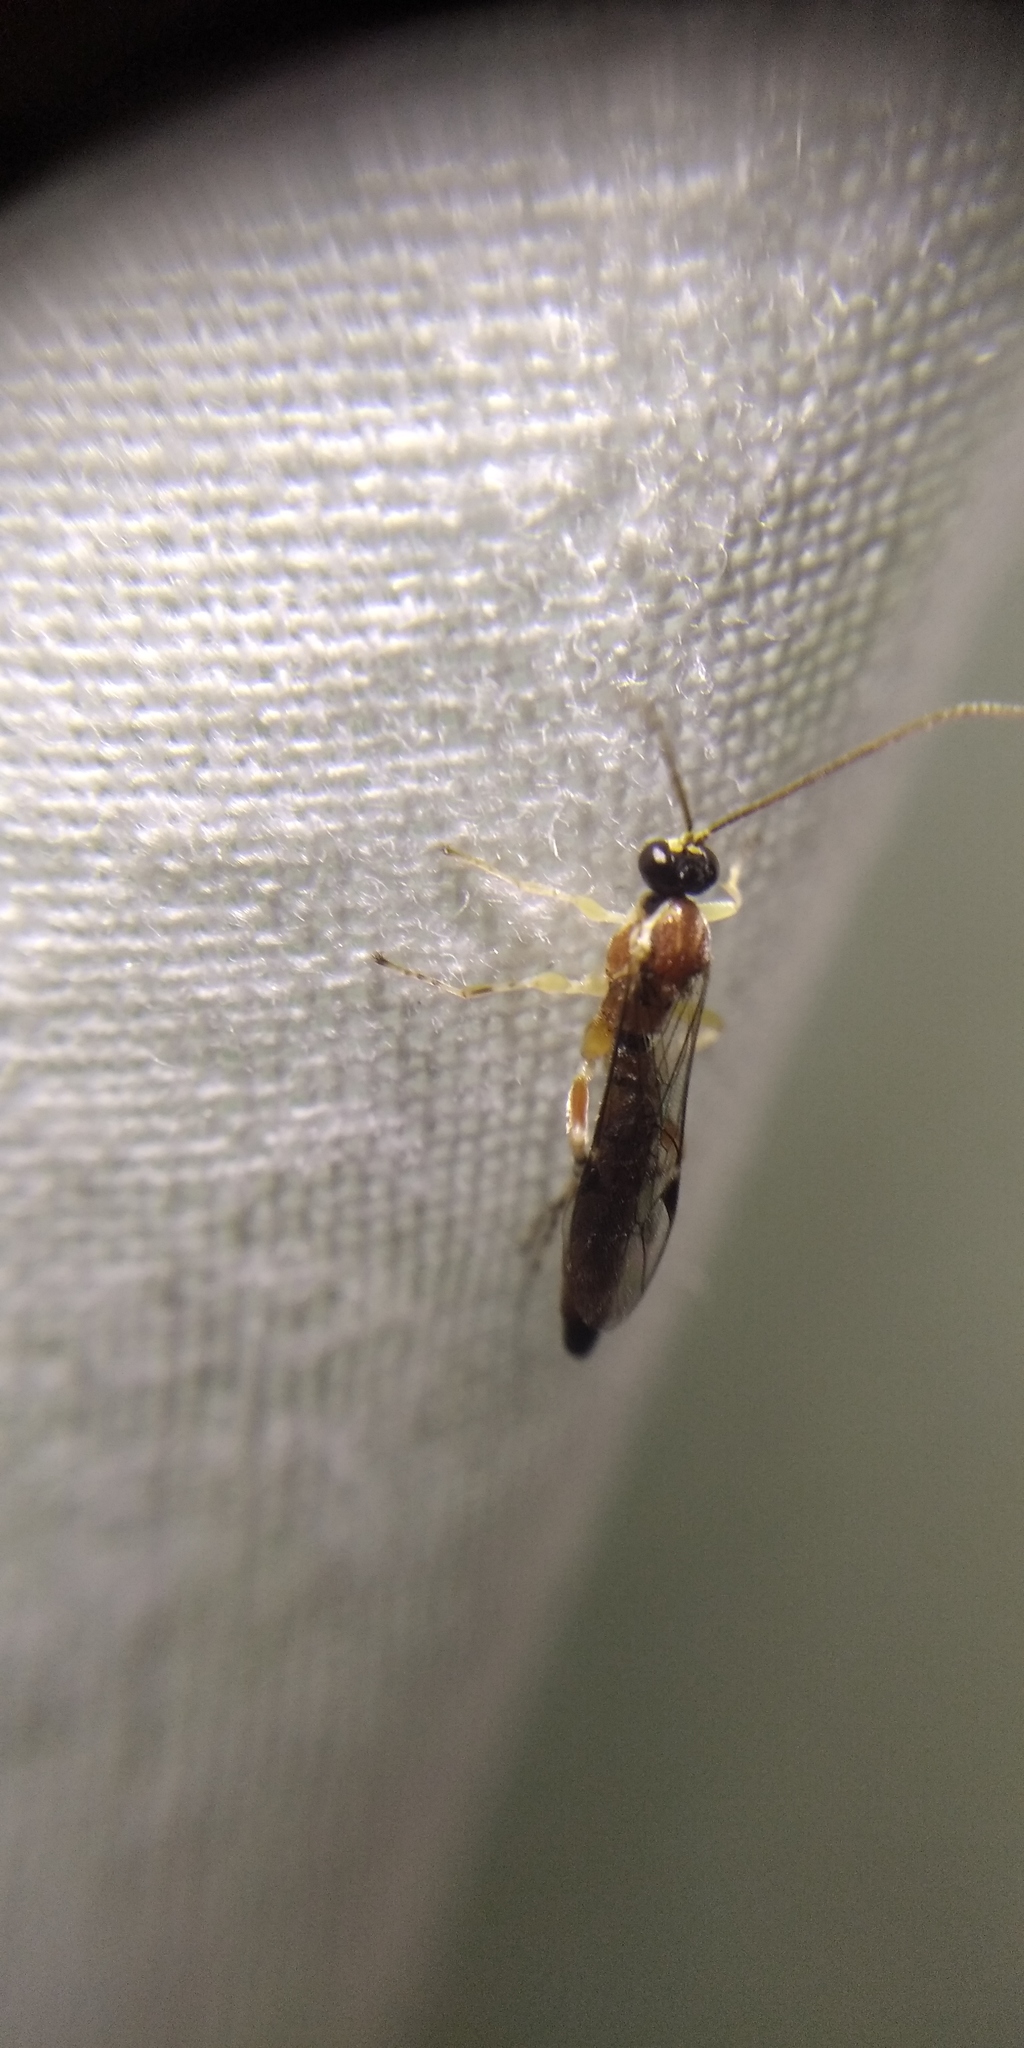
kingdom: Animalia
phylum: Arthropoda
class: Insecta
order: Hymenoptera
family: Ichneumonidae
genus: Zaglyptus
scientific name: Zaglyptus multicolor
